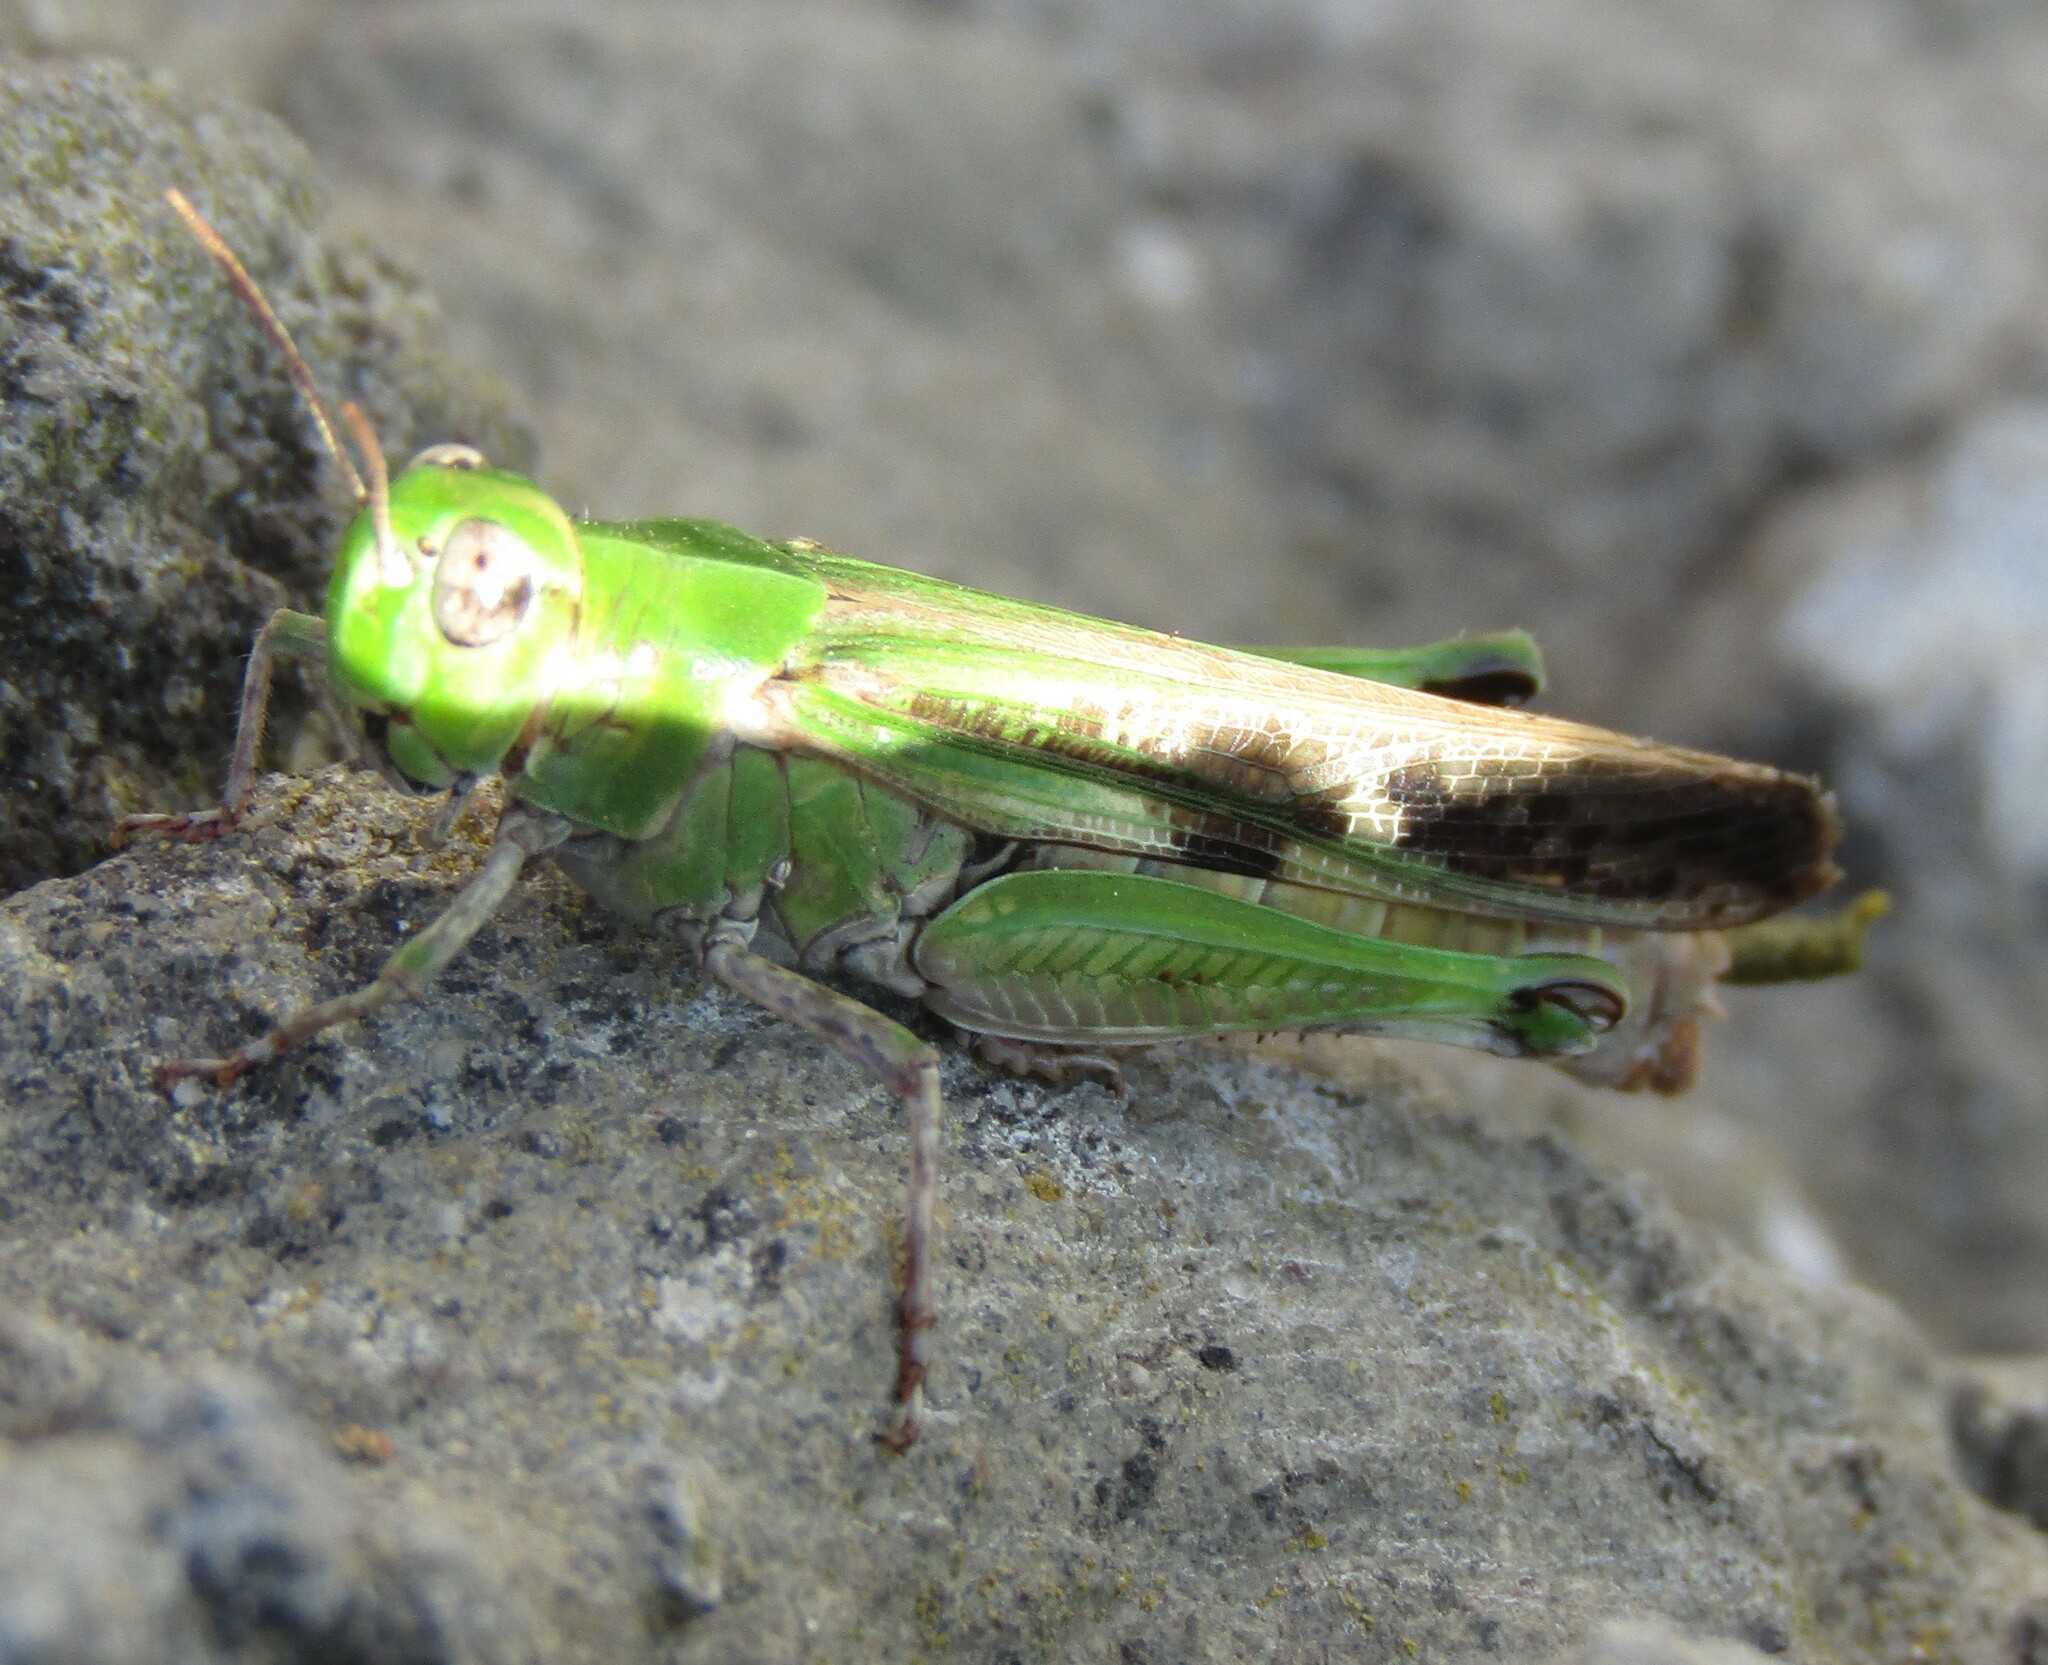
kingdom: Animalia
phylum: Arthropoda
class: Insecta
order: Orthoptera
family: Acrididae
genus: Aiolopus
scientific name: Aiolopus thalassinus
